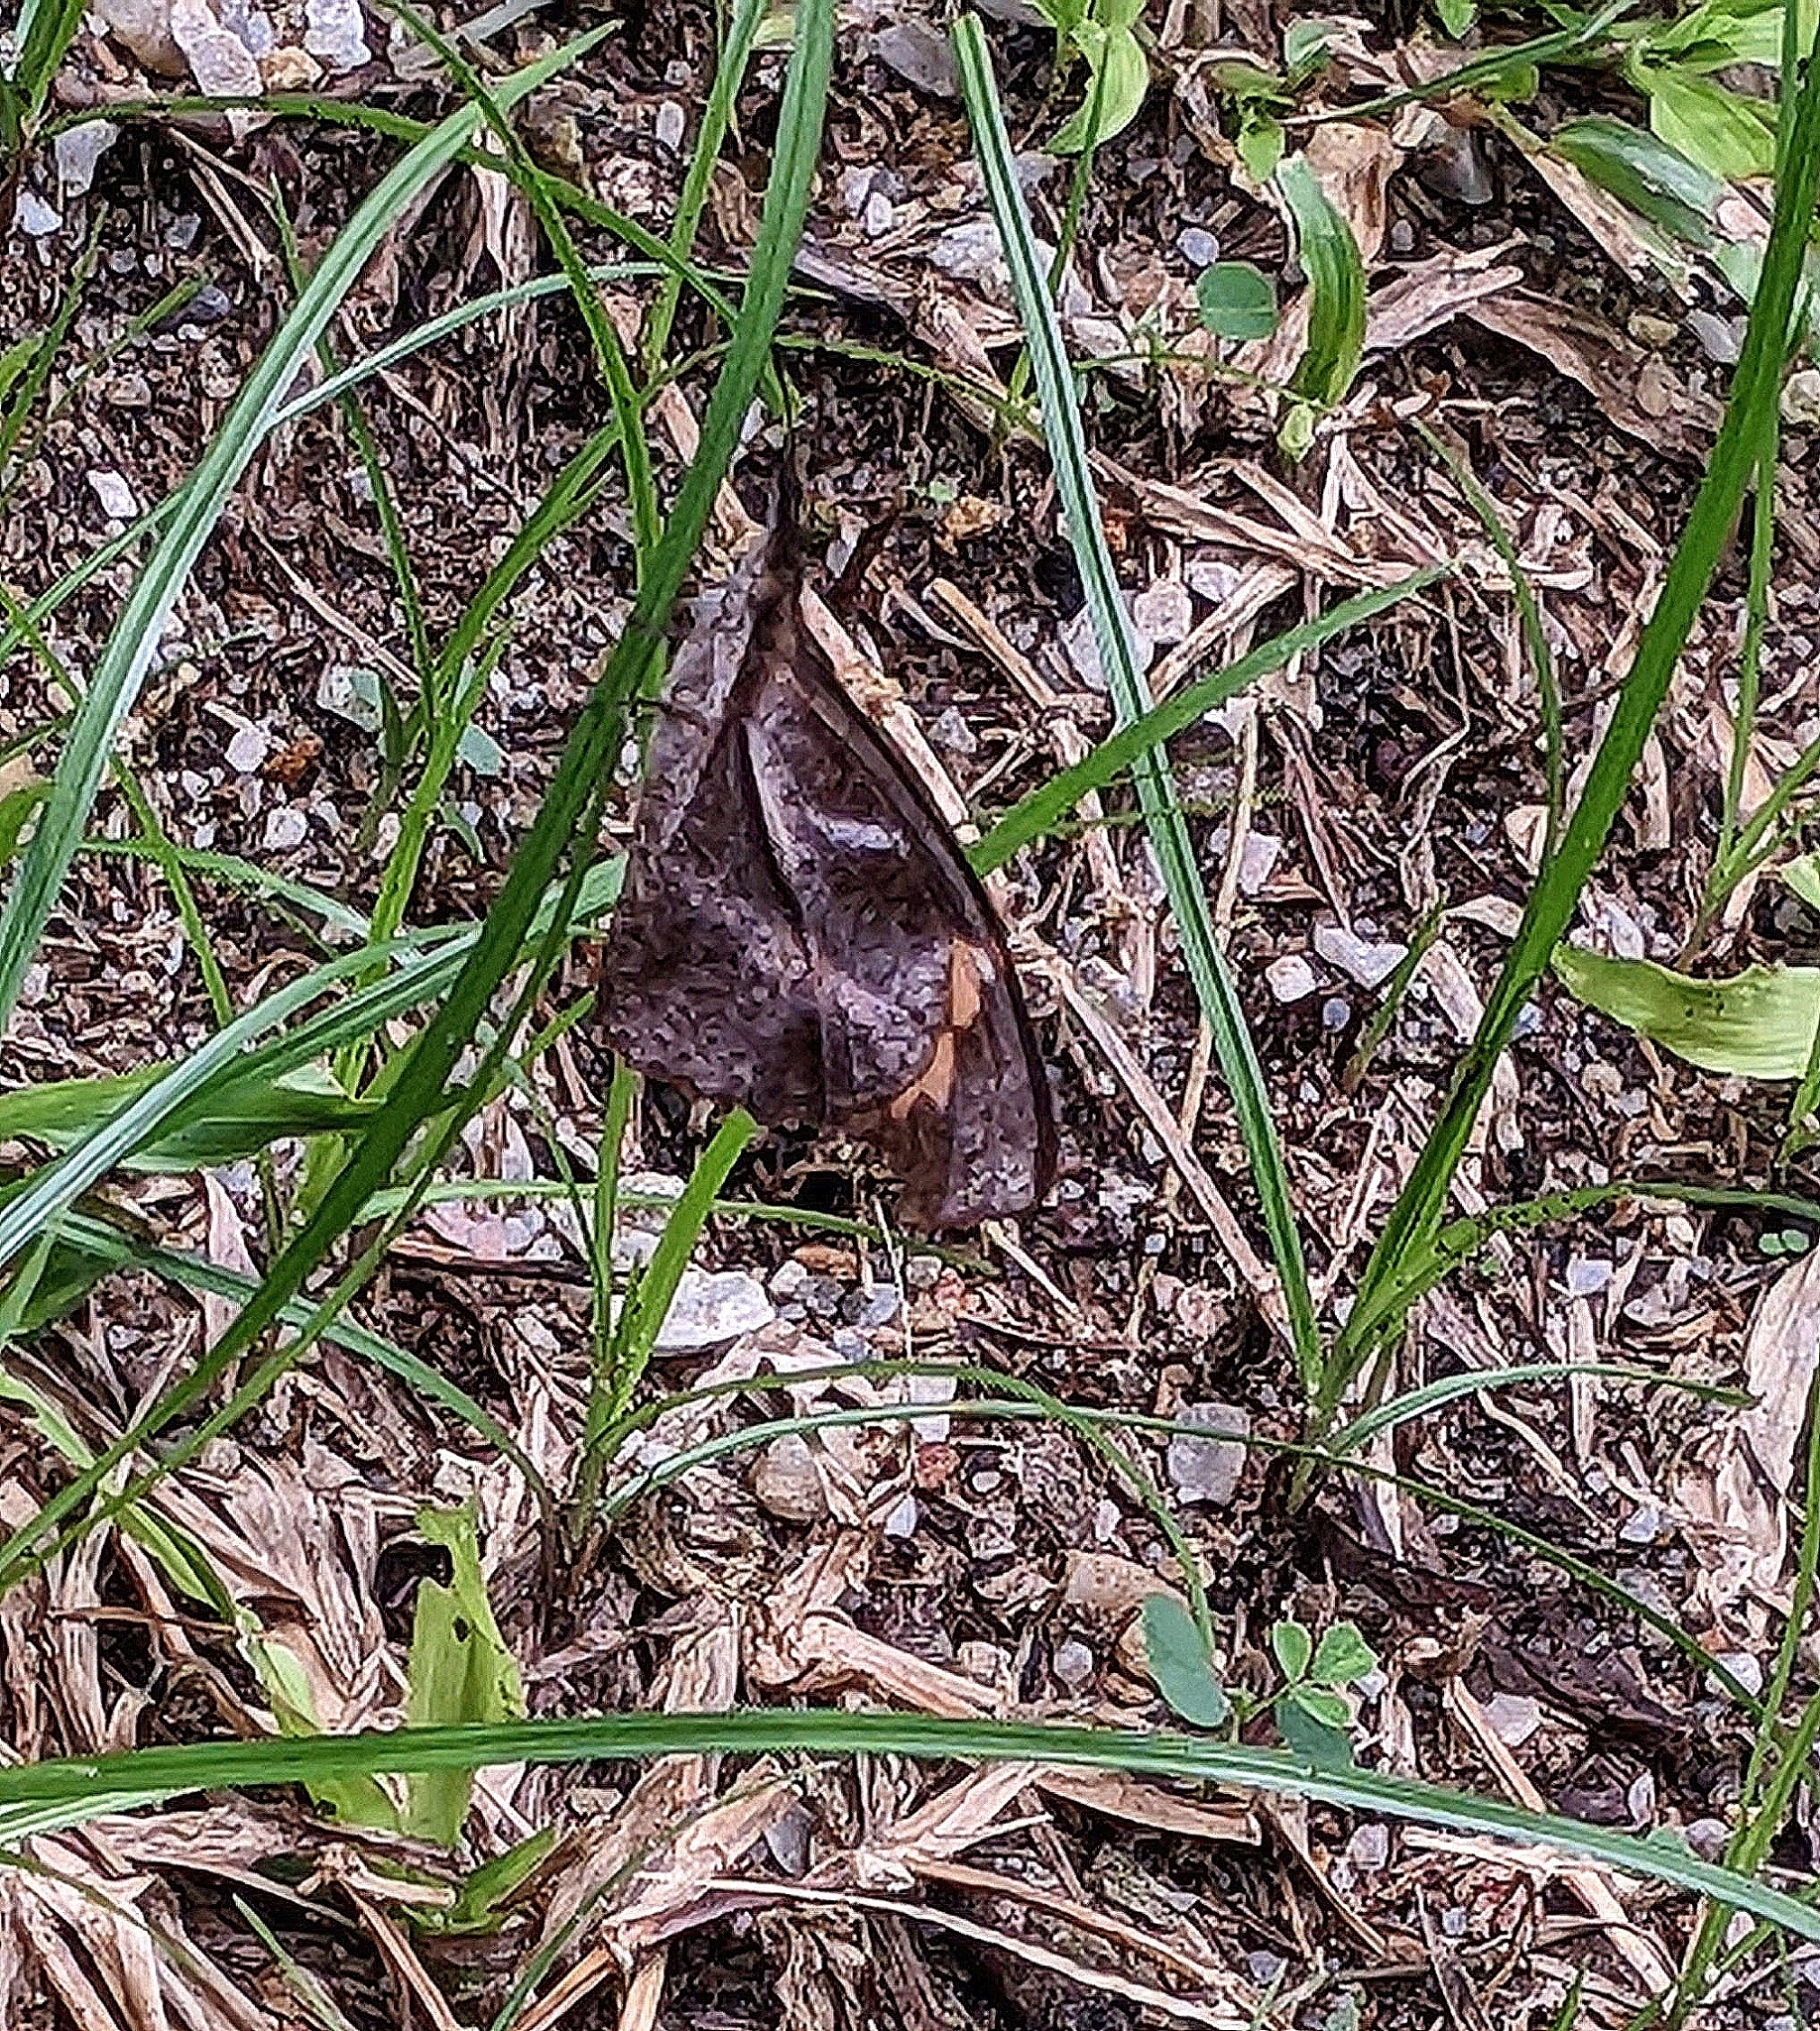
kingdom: Animalia
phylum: Arthropoda
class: Insecta
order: Lepidoptera
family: Nymphalidae
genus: Libythea
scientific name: Libythea myrrha
